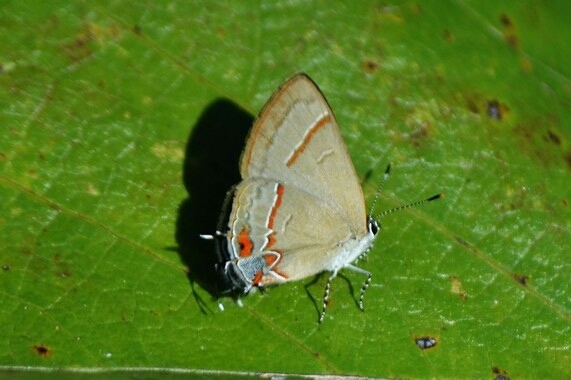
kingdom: Animalia
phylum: Arthropoda
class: Insecta
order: Lepidoptera
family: Lycaenidae
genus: Calycopis
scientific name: Calycopis caulonia
